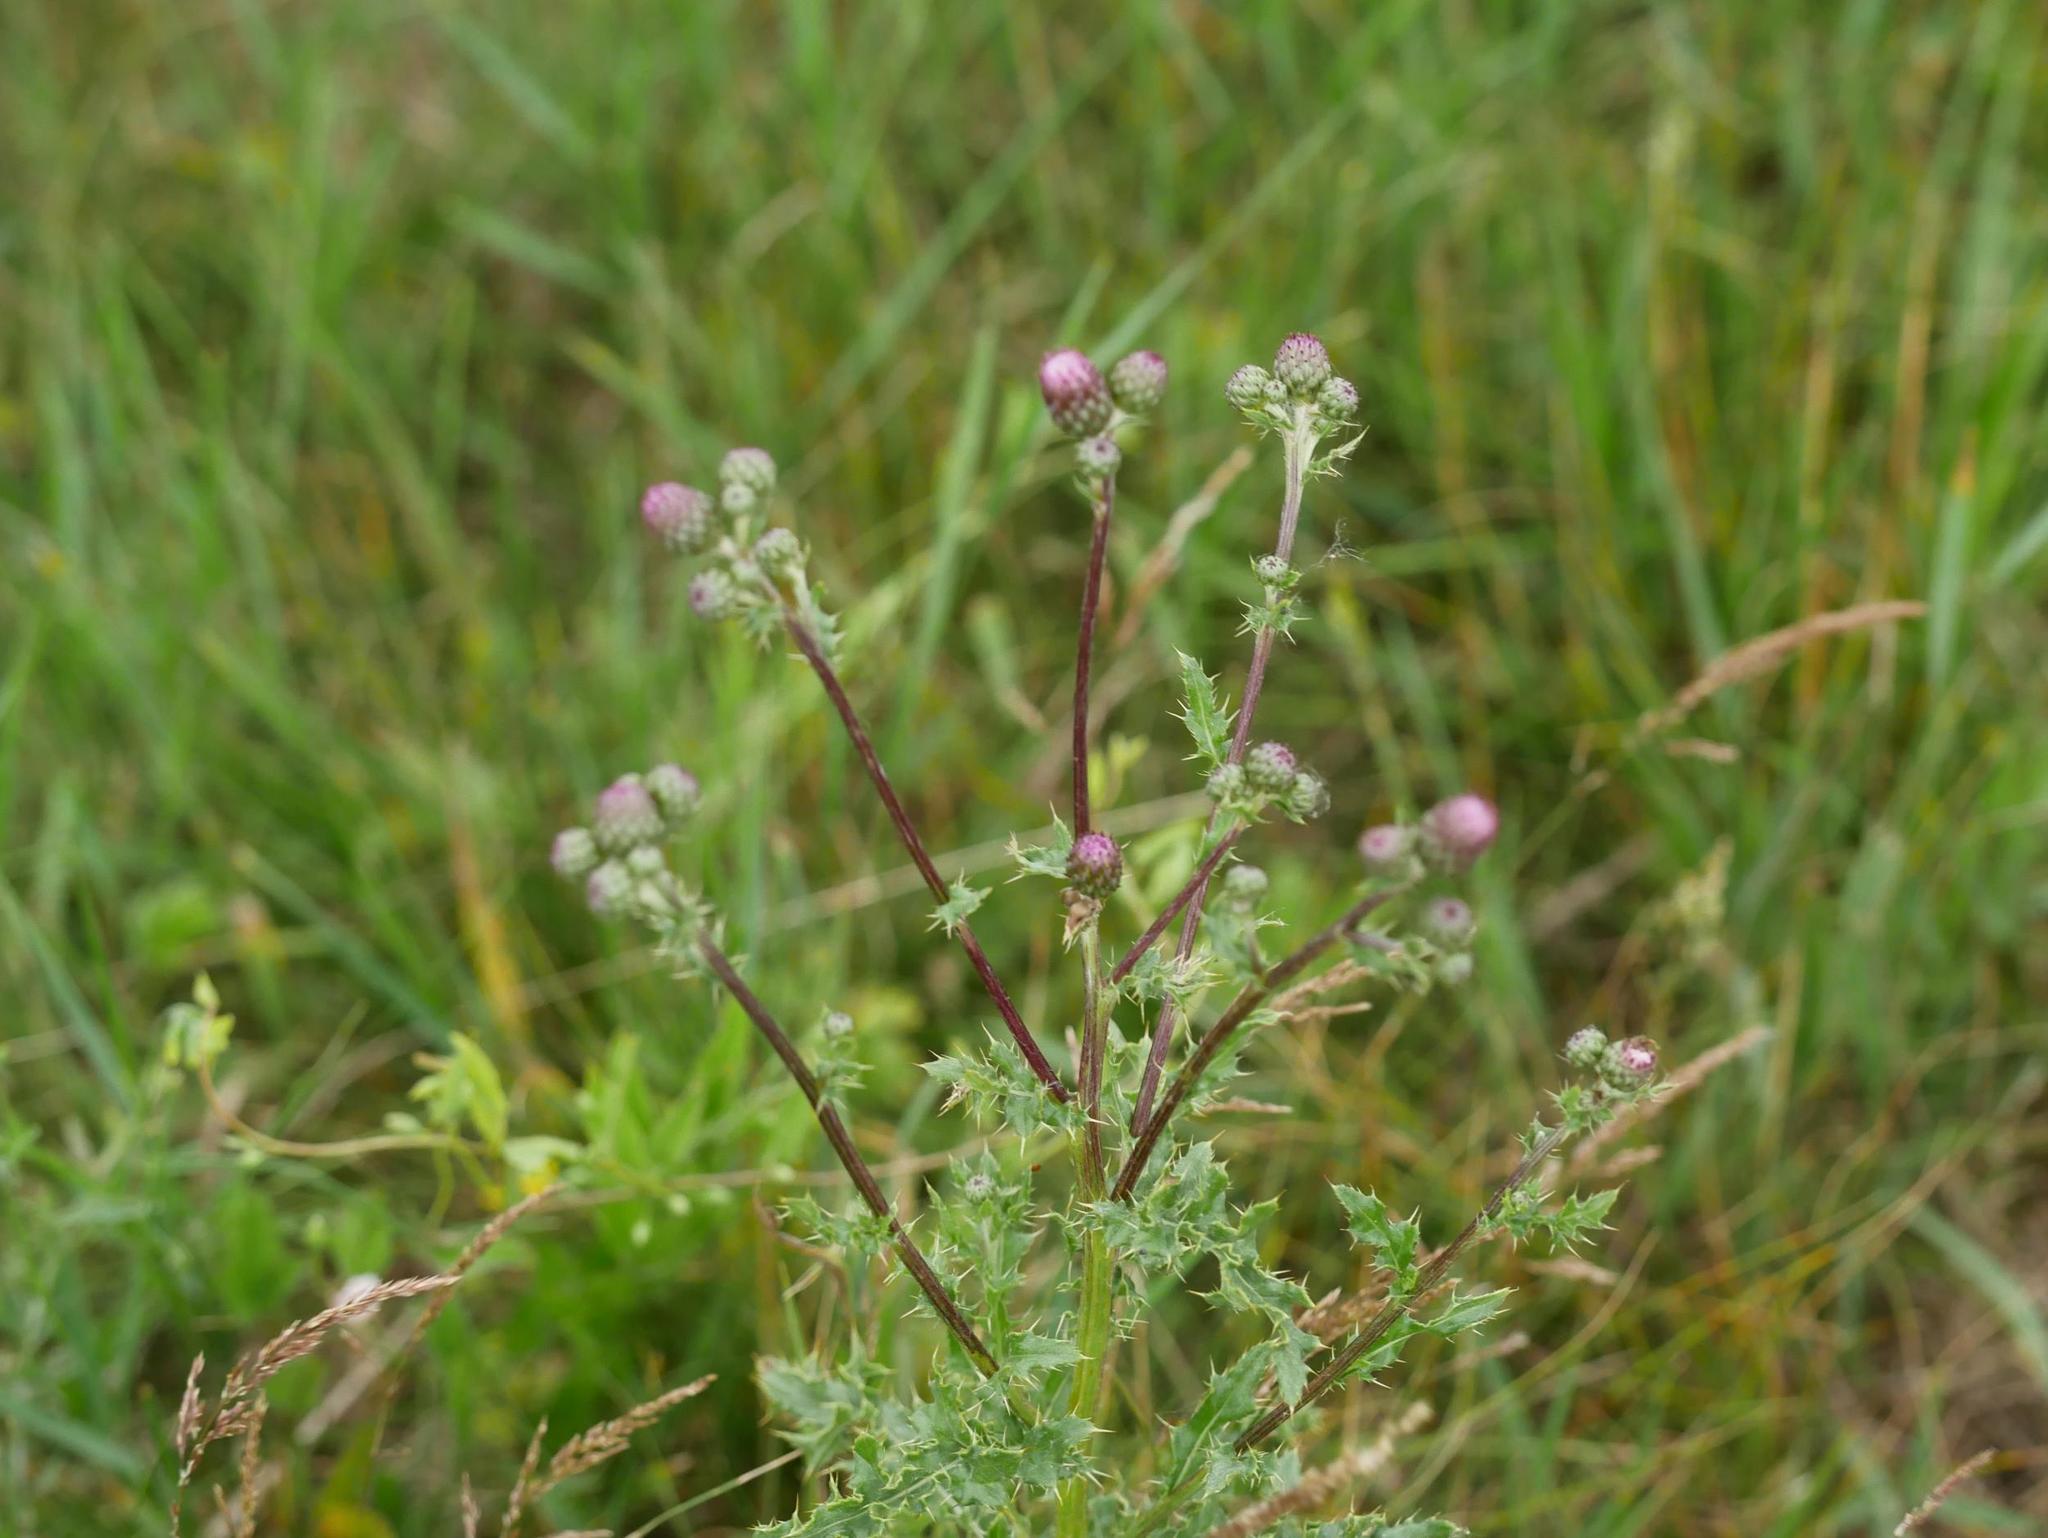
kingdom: Plantae
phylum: Tracheophyta
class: Magnoliopsida
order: Asterales
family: Asteraceae
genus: Cirsium
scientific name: Cirsium arvense
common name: Creeping thistle
